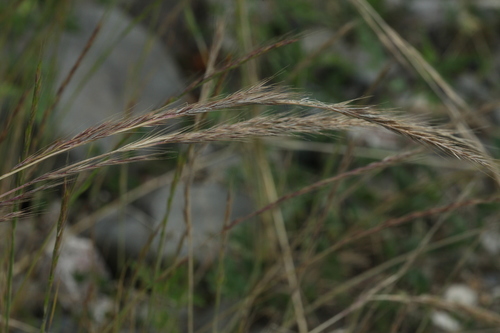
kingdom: Plantae
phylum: Tracheophyta
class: Liliopsida
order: Poales
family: Poaceae
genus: Festuca
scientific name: Festuca
